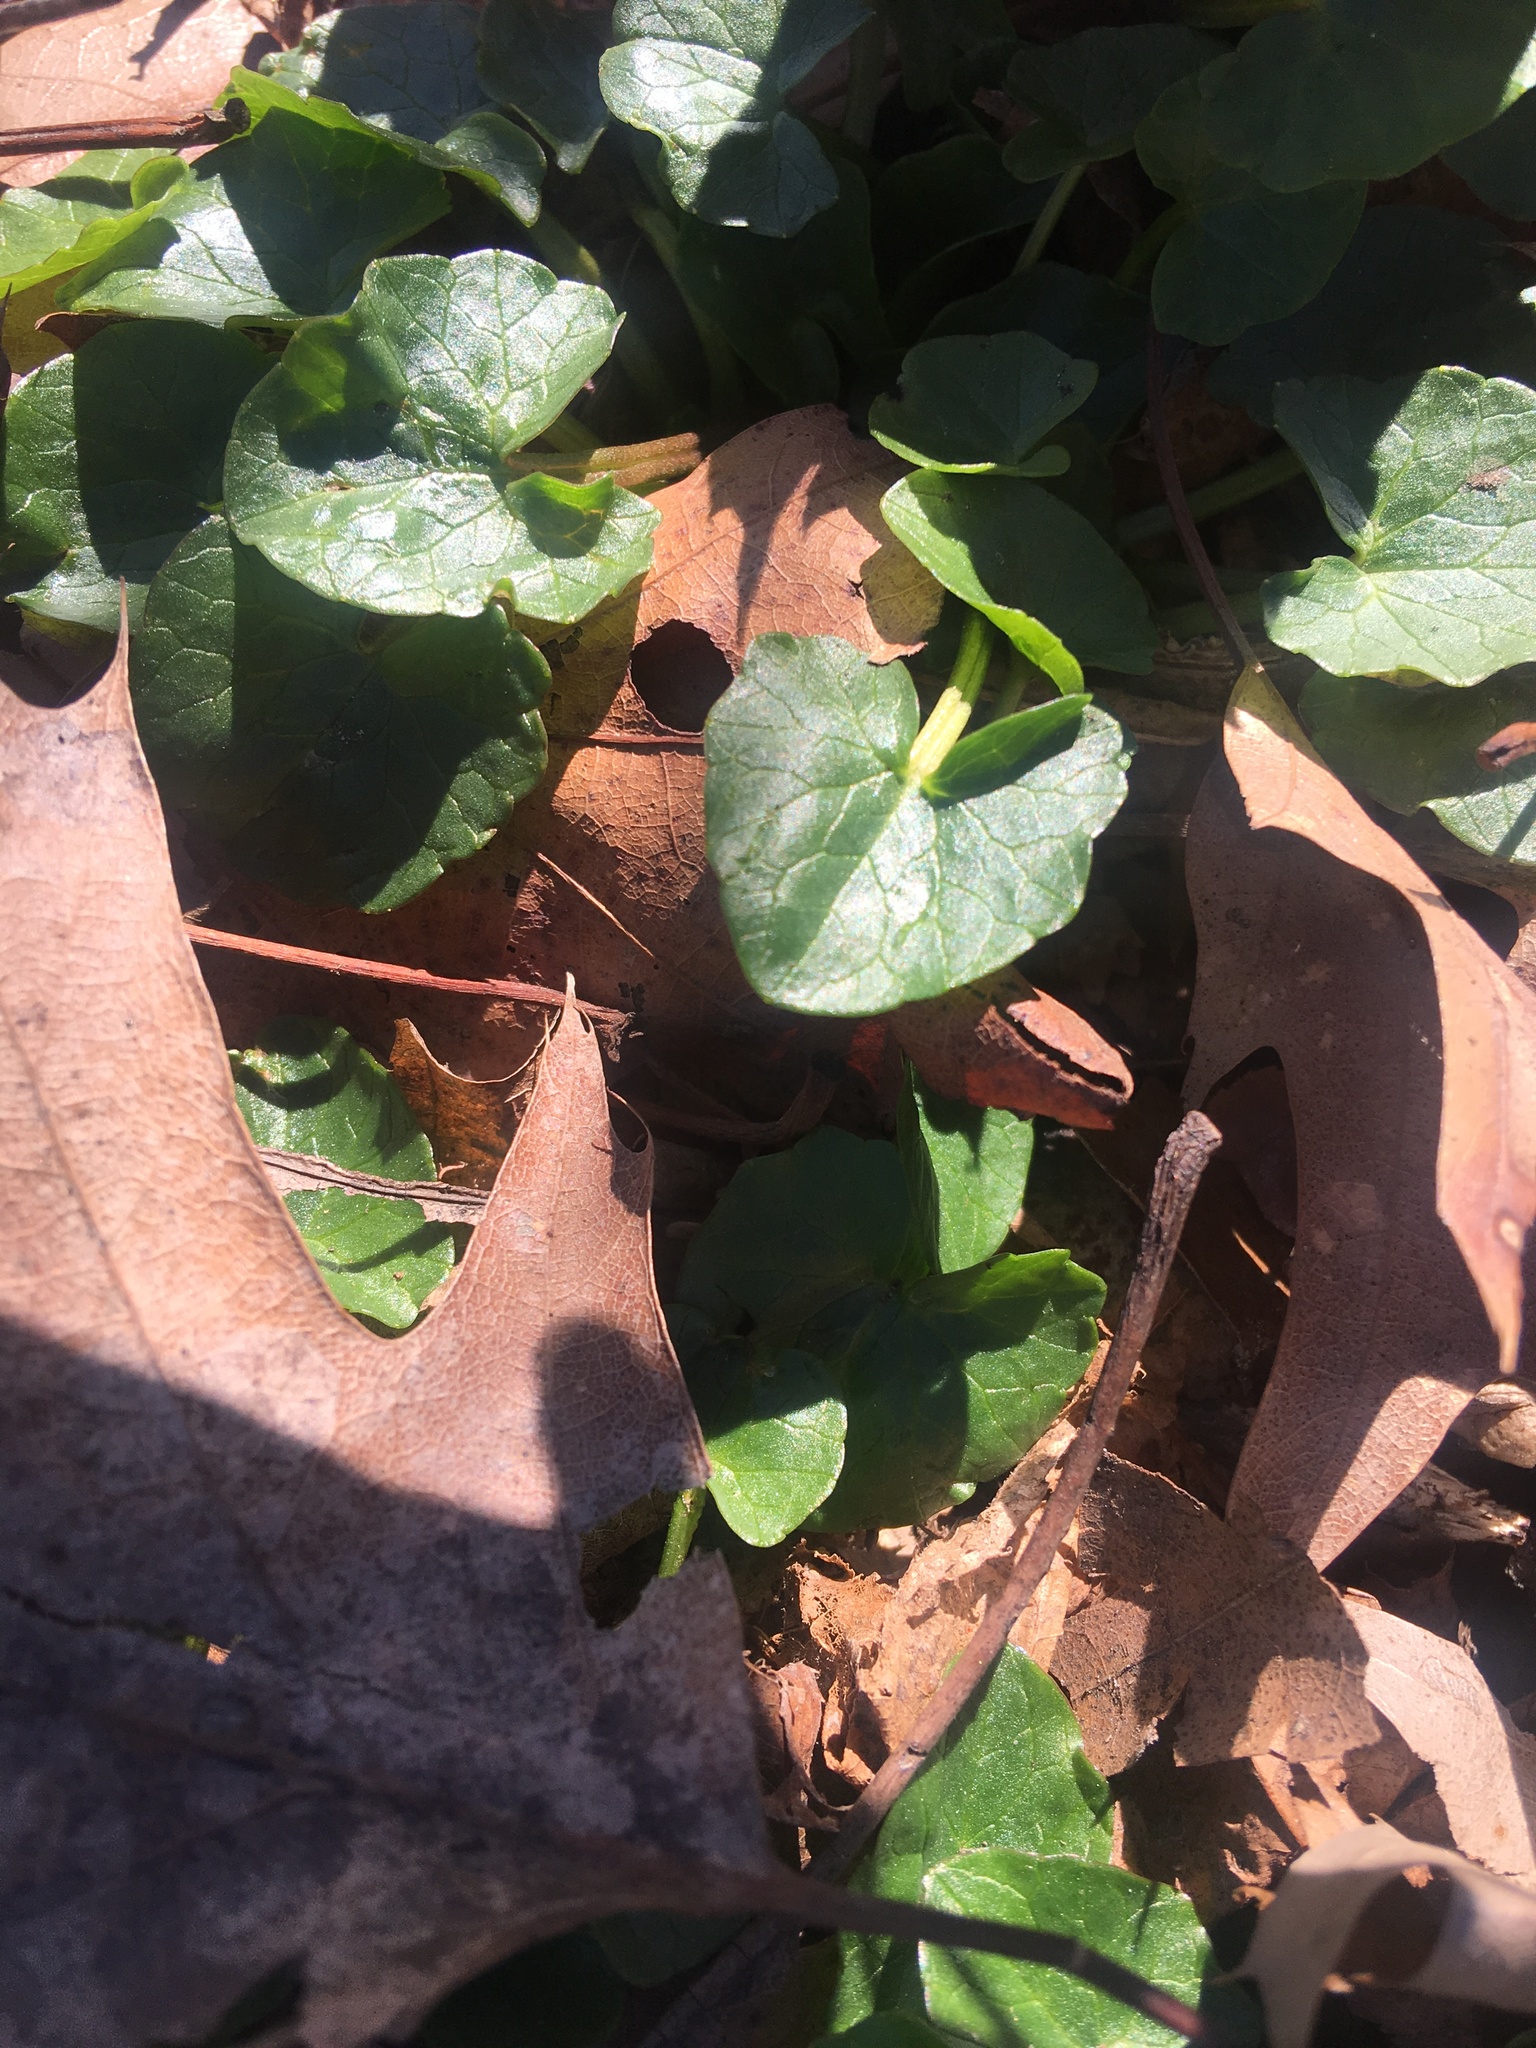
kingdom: Plantae
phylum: Tracheophyta
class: Magnoliopsida
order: Ranunculales
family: Ranunculaceae
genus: Ficaria
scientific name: Ficaria verna
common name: Lesser celandine
